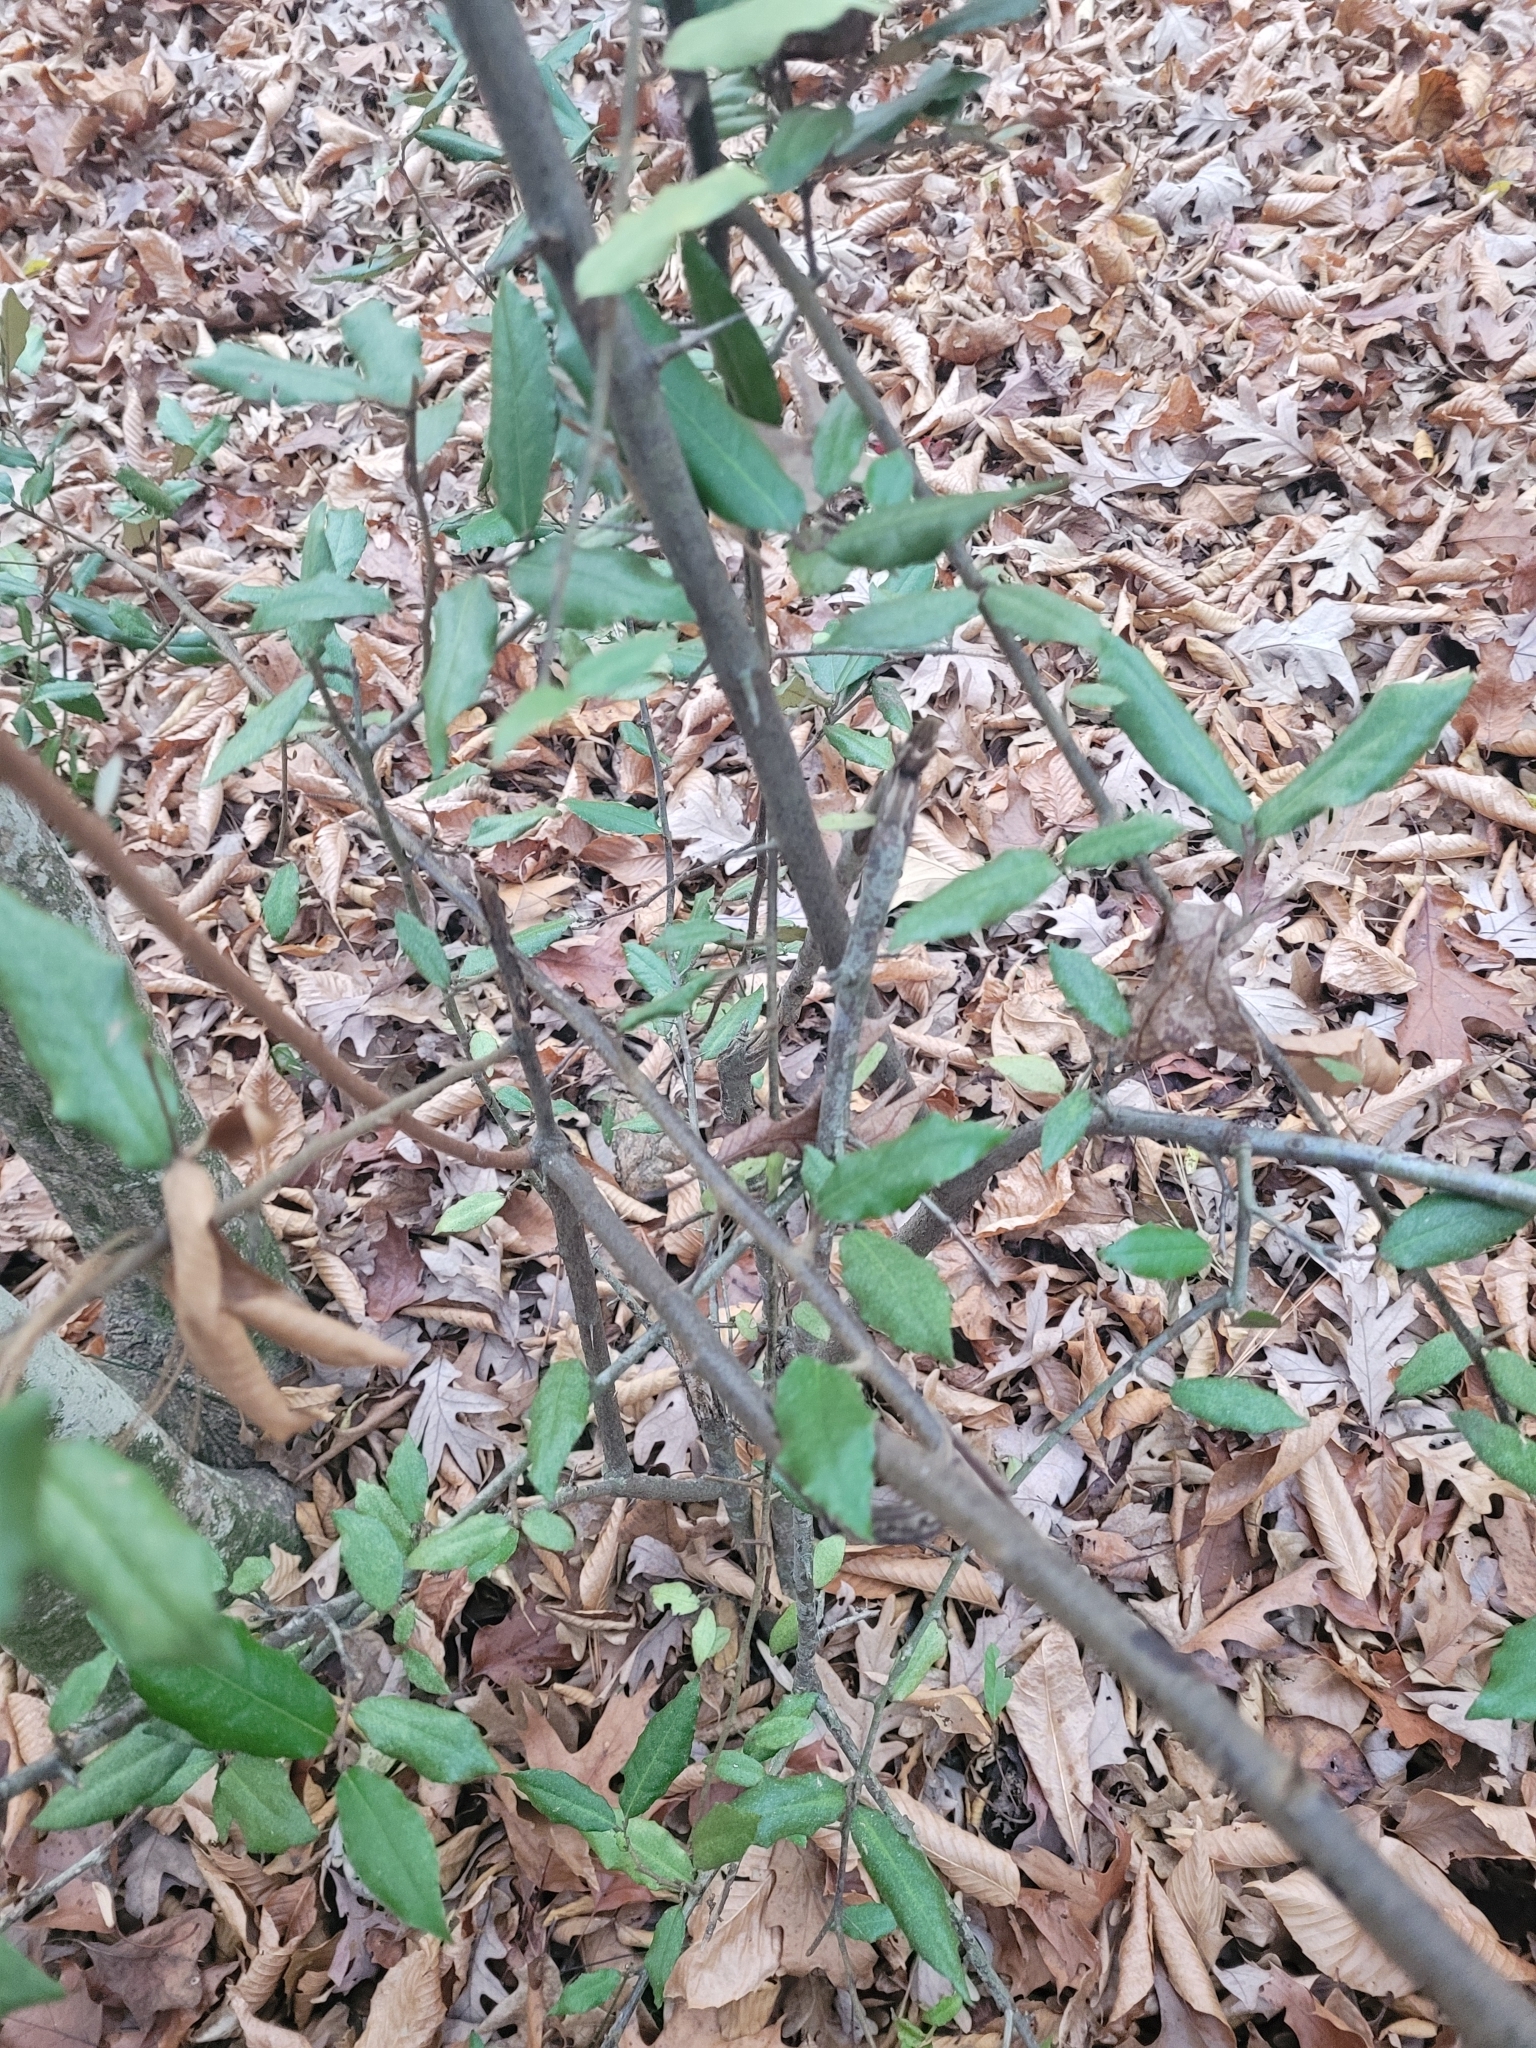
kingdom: Plantae
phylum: Tracheophyta
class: Magnoliopsida
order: Rosales
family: Elaeagnaceae
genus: Elaeagnus
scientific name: Elaeagnus pungens
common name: Spiny oleaster
